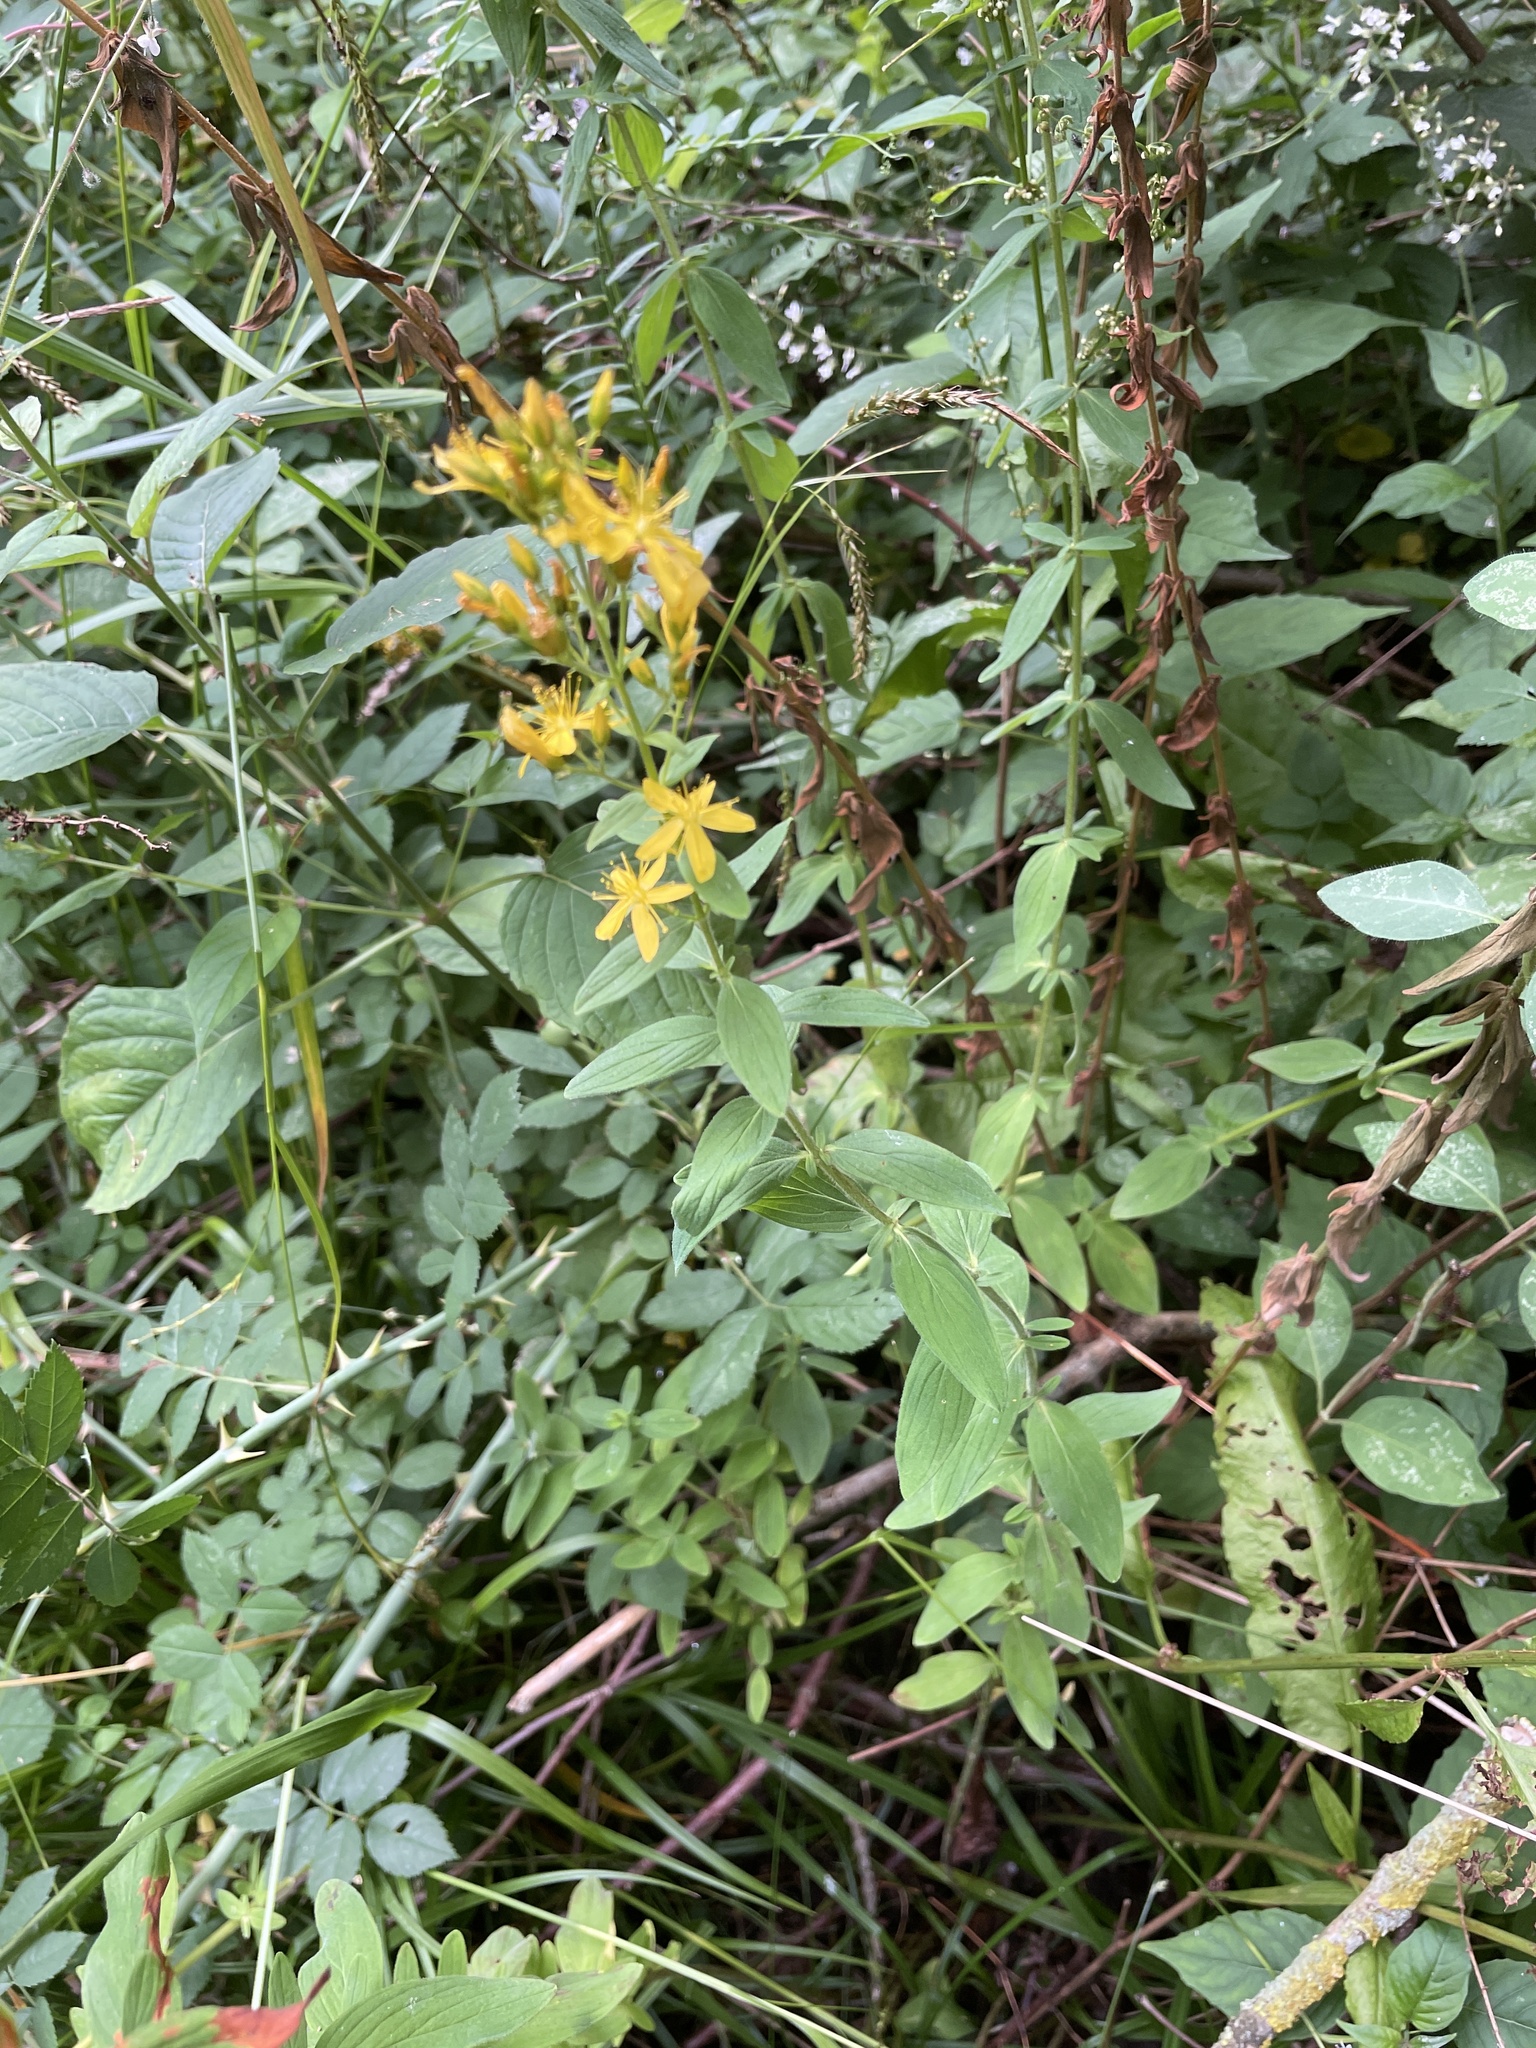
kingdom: Plantae
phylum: Tracheophyta
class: Magnoliopsida
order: Malpighiales
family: Hypericaceae
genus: Hypericum
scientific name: Hypericum hirsutum
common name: Hairy st. john's-wort
